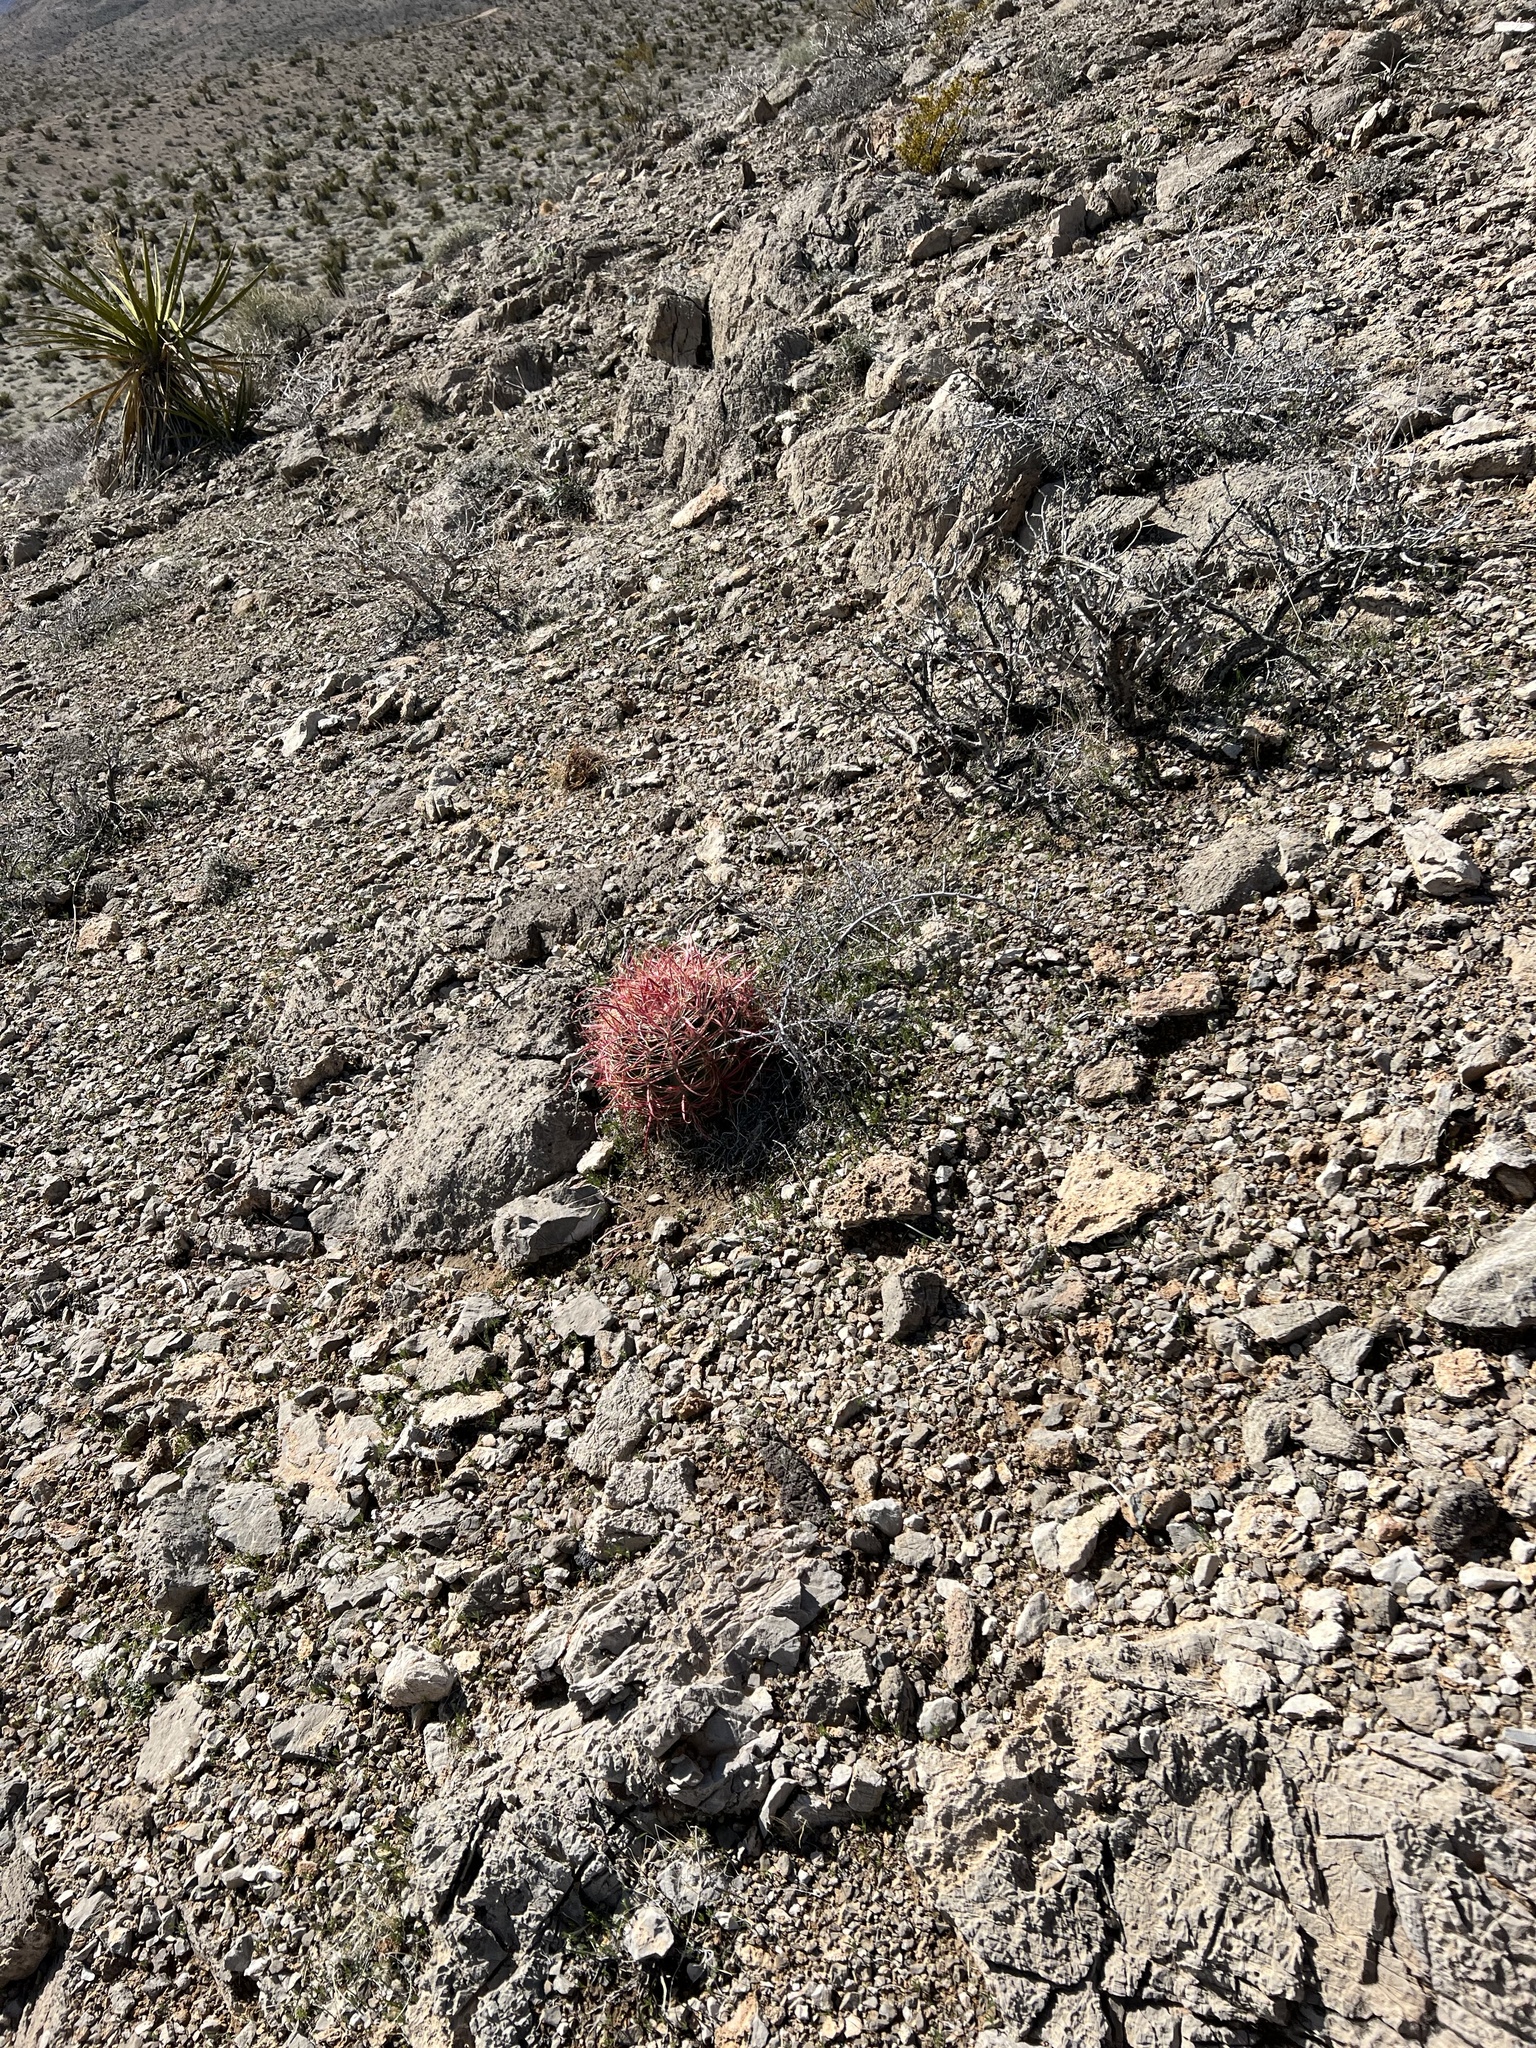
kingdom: Plantae
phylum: Tracheophyta
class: Magnoliopsida
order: Caryophyllales
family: Cactaceae
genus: Ferocactus
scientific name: Ferocactus cylindraceus
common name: California barrel cactus
